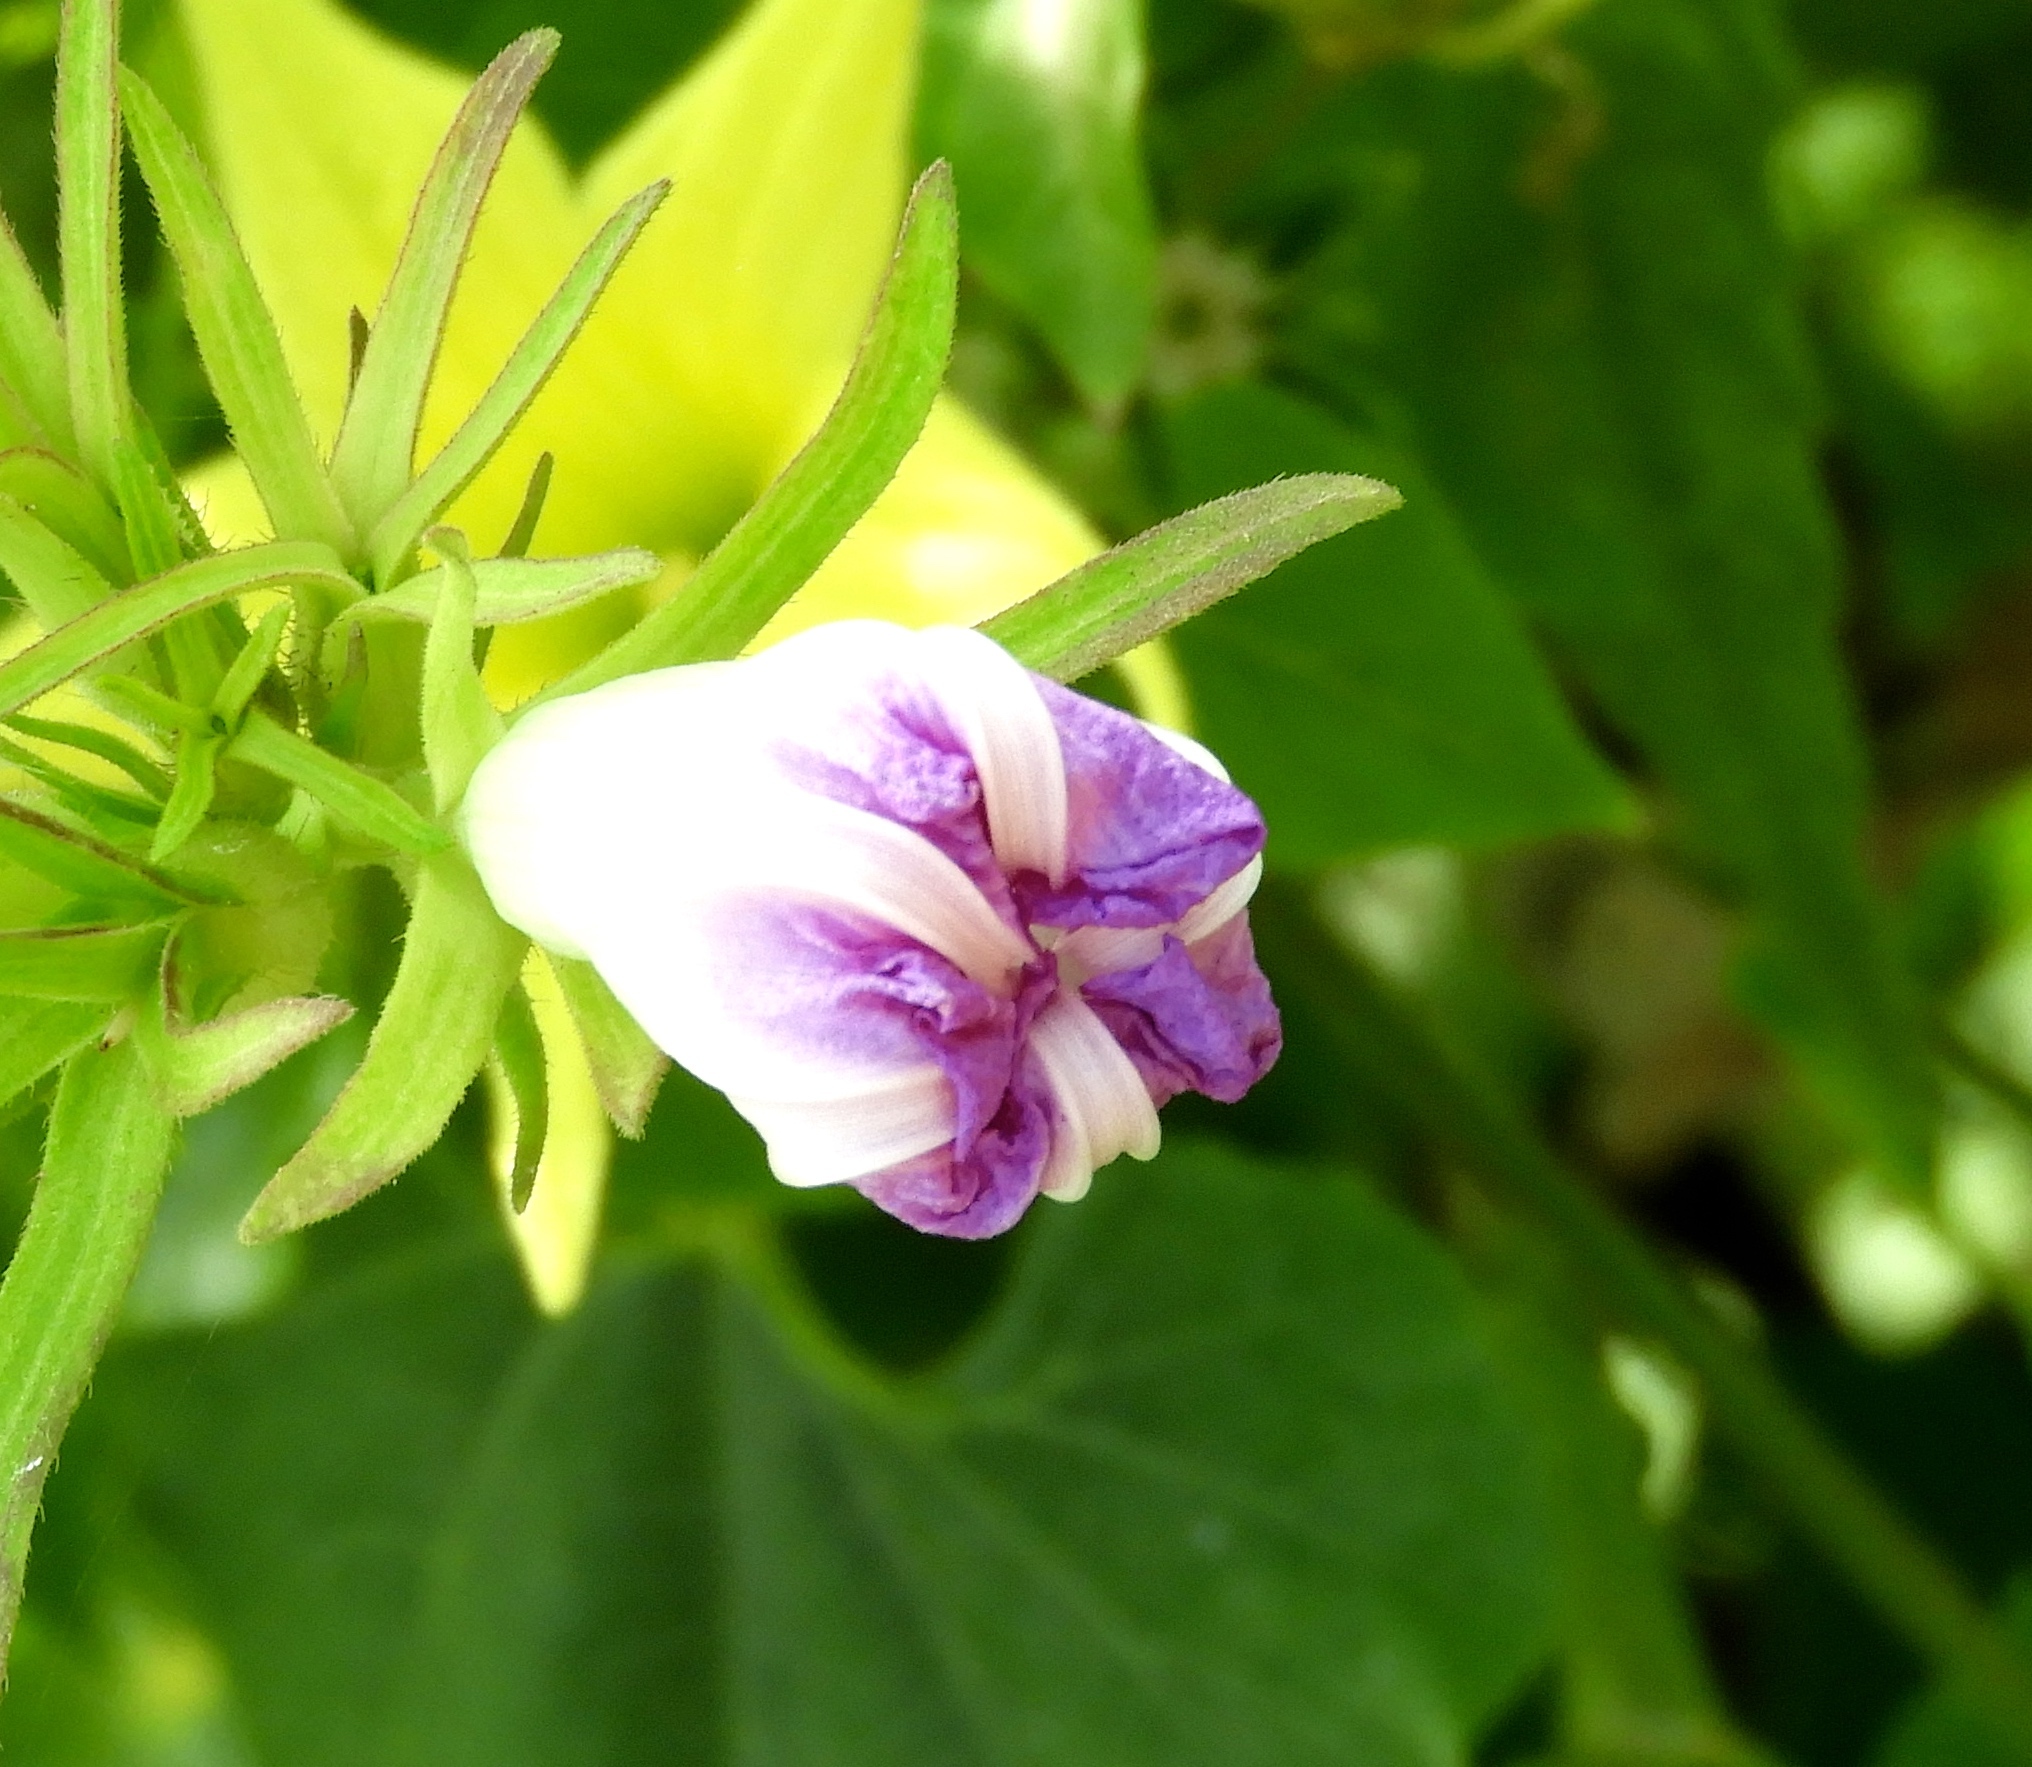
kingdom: Plantae
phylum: Tracheophyta
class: Magnoliopsida
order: Solanales
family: Convolvulaceae
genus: Ipomoea
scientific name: Ipomoea hederacea
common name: Ivy-leaved morning-glory
